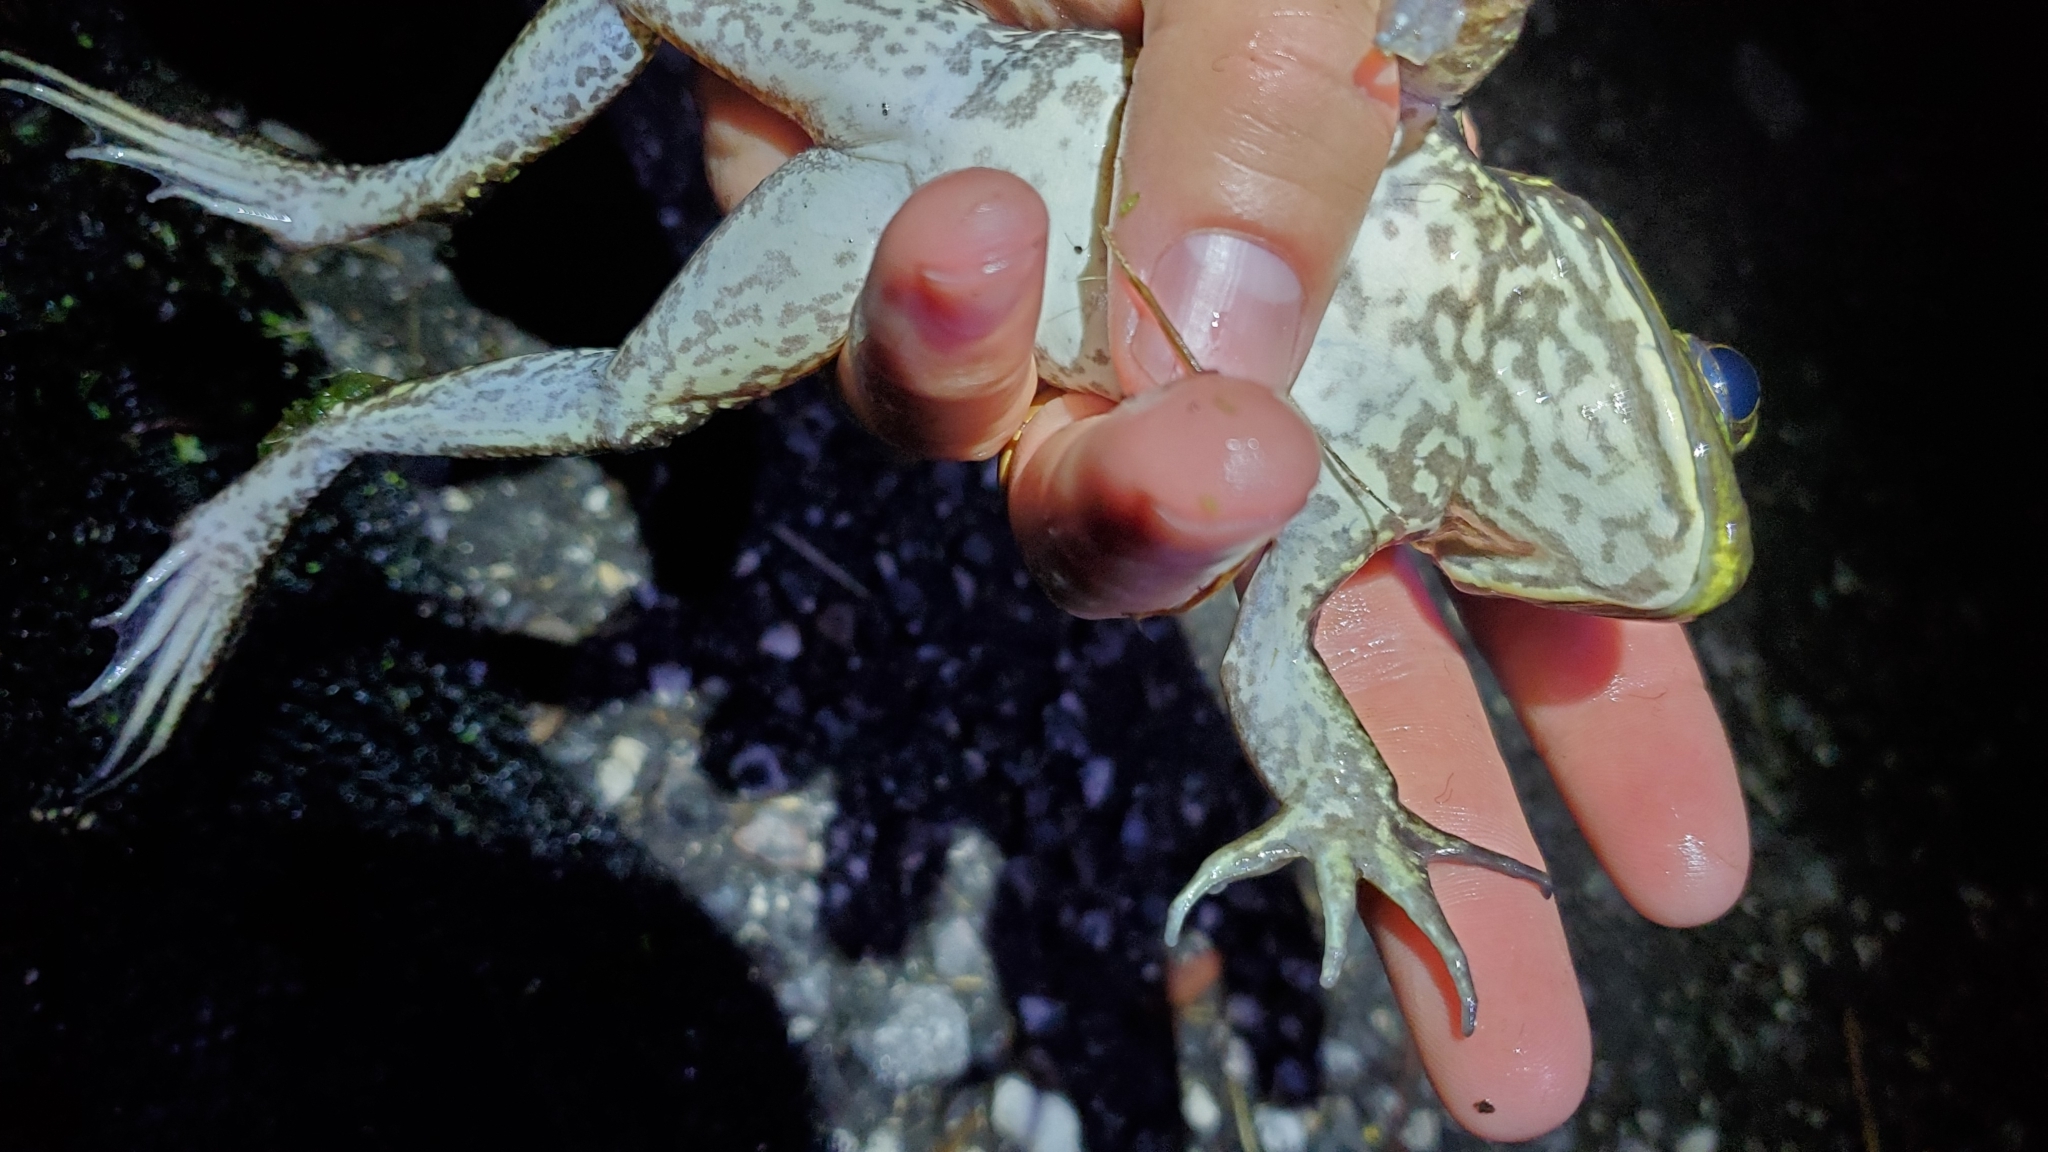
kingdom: Animalia
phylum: Chordata
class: Amphibia
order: Anura
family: Ranidae
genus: Lithobates
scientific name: Lithobates catesbeianus
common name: American bullfrog
